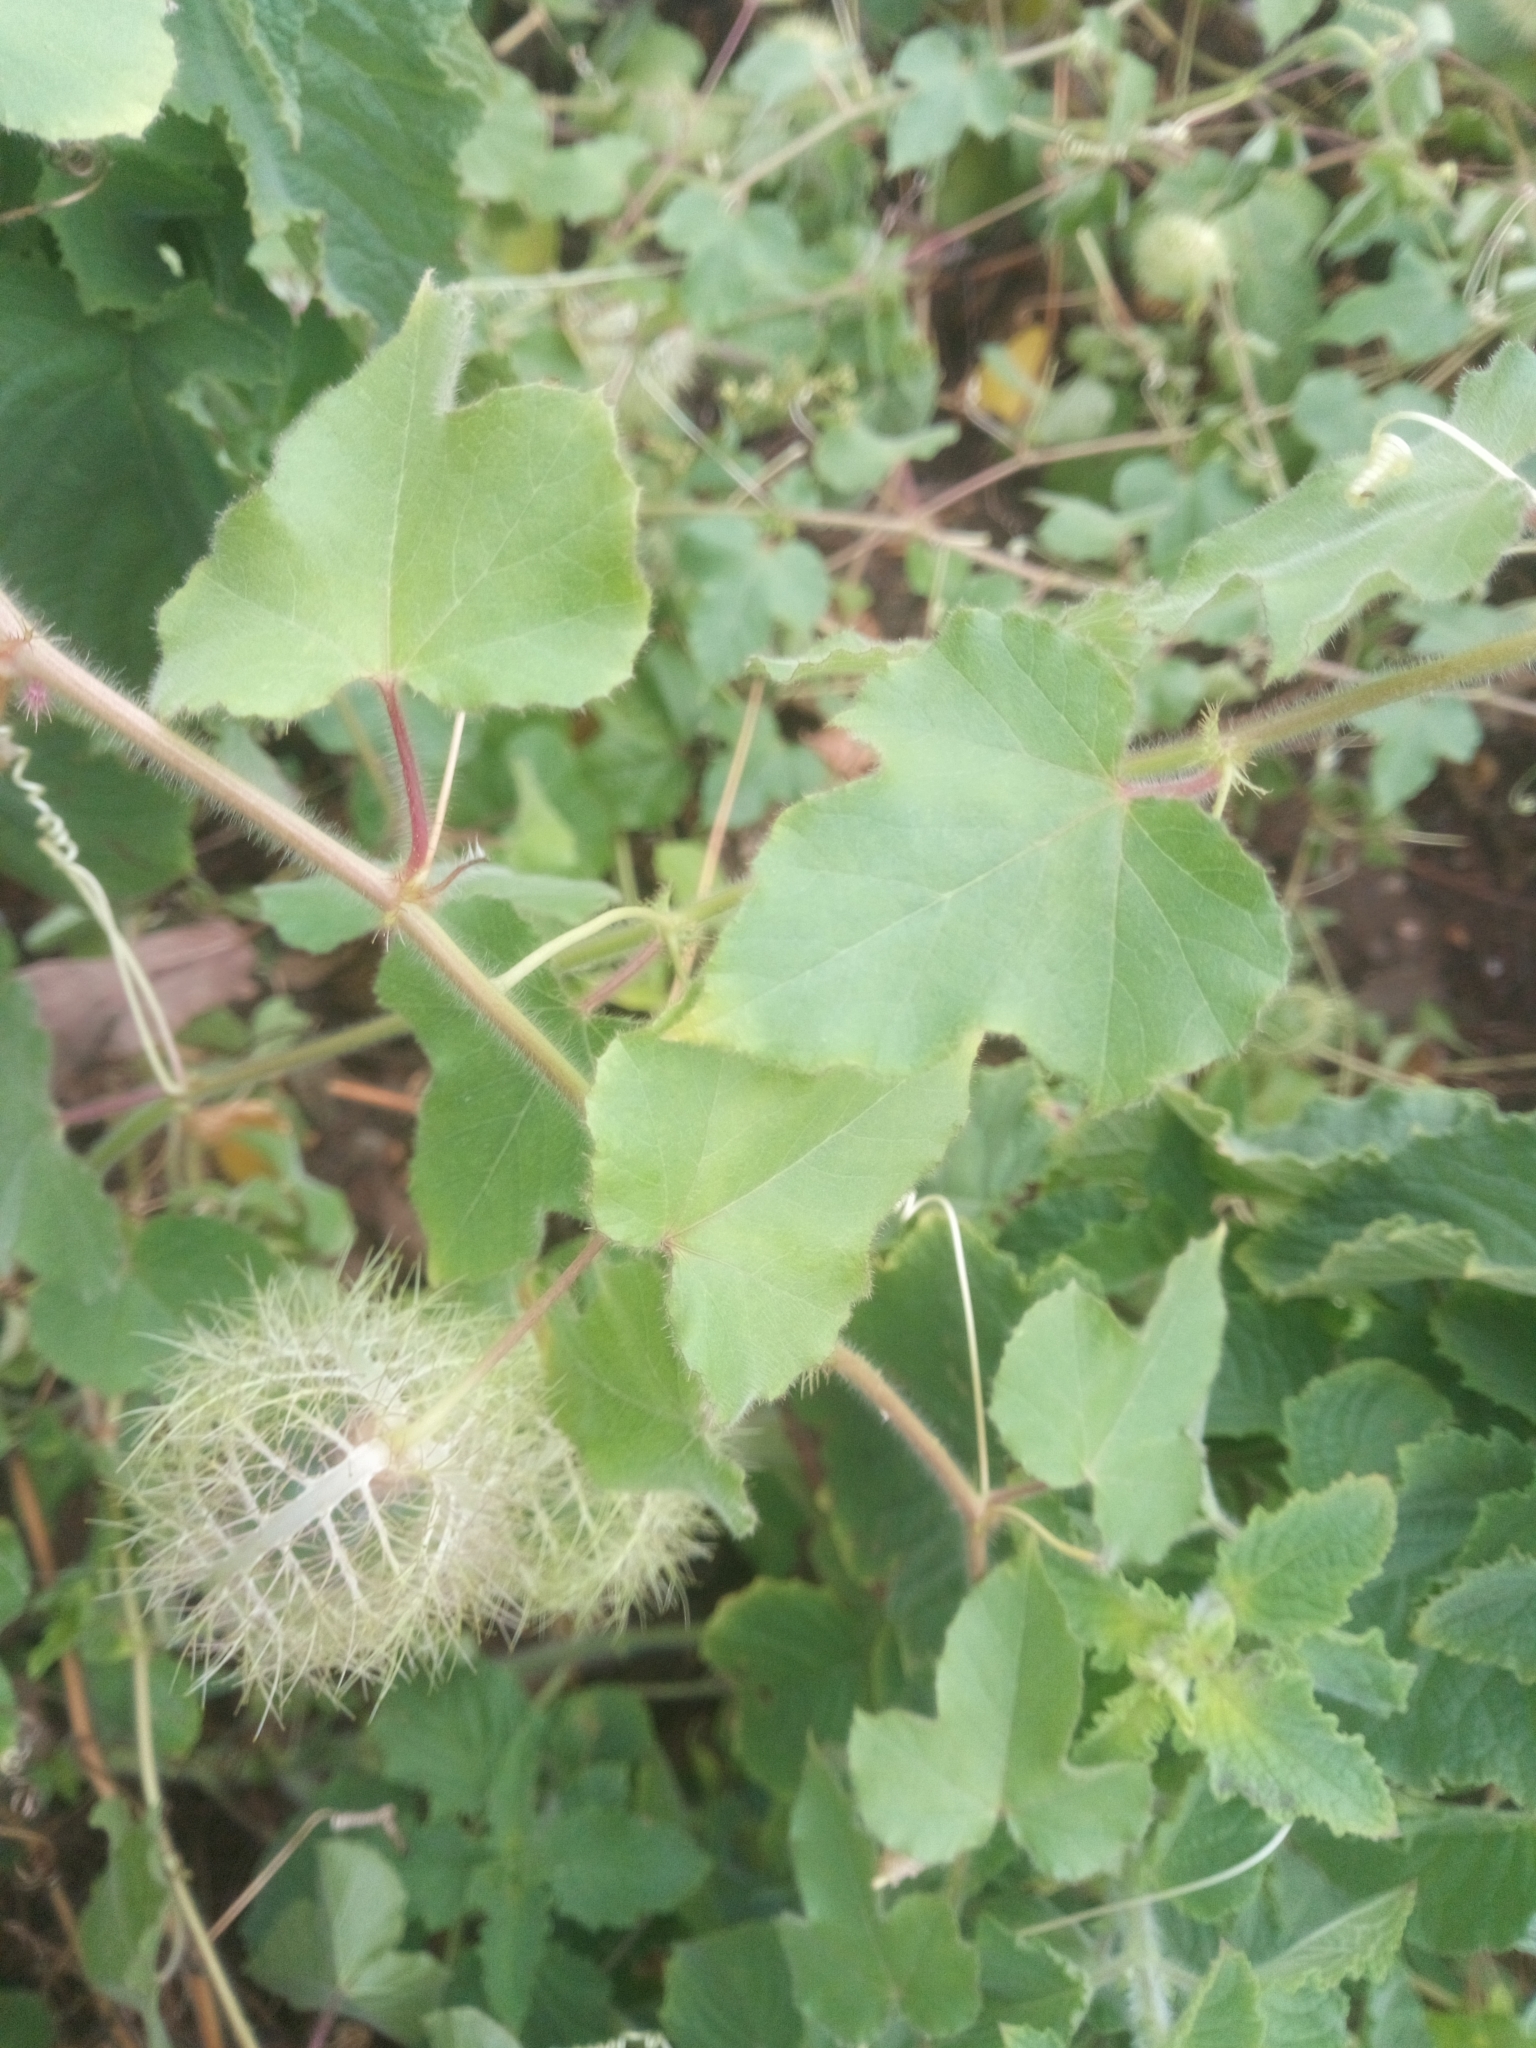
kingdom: Plantae
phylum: Tracheophyta
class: Magnoliopsida
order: Malpighiales
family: Passifloraceae
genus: Passiflora
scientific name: Passiflora vesicaria
